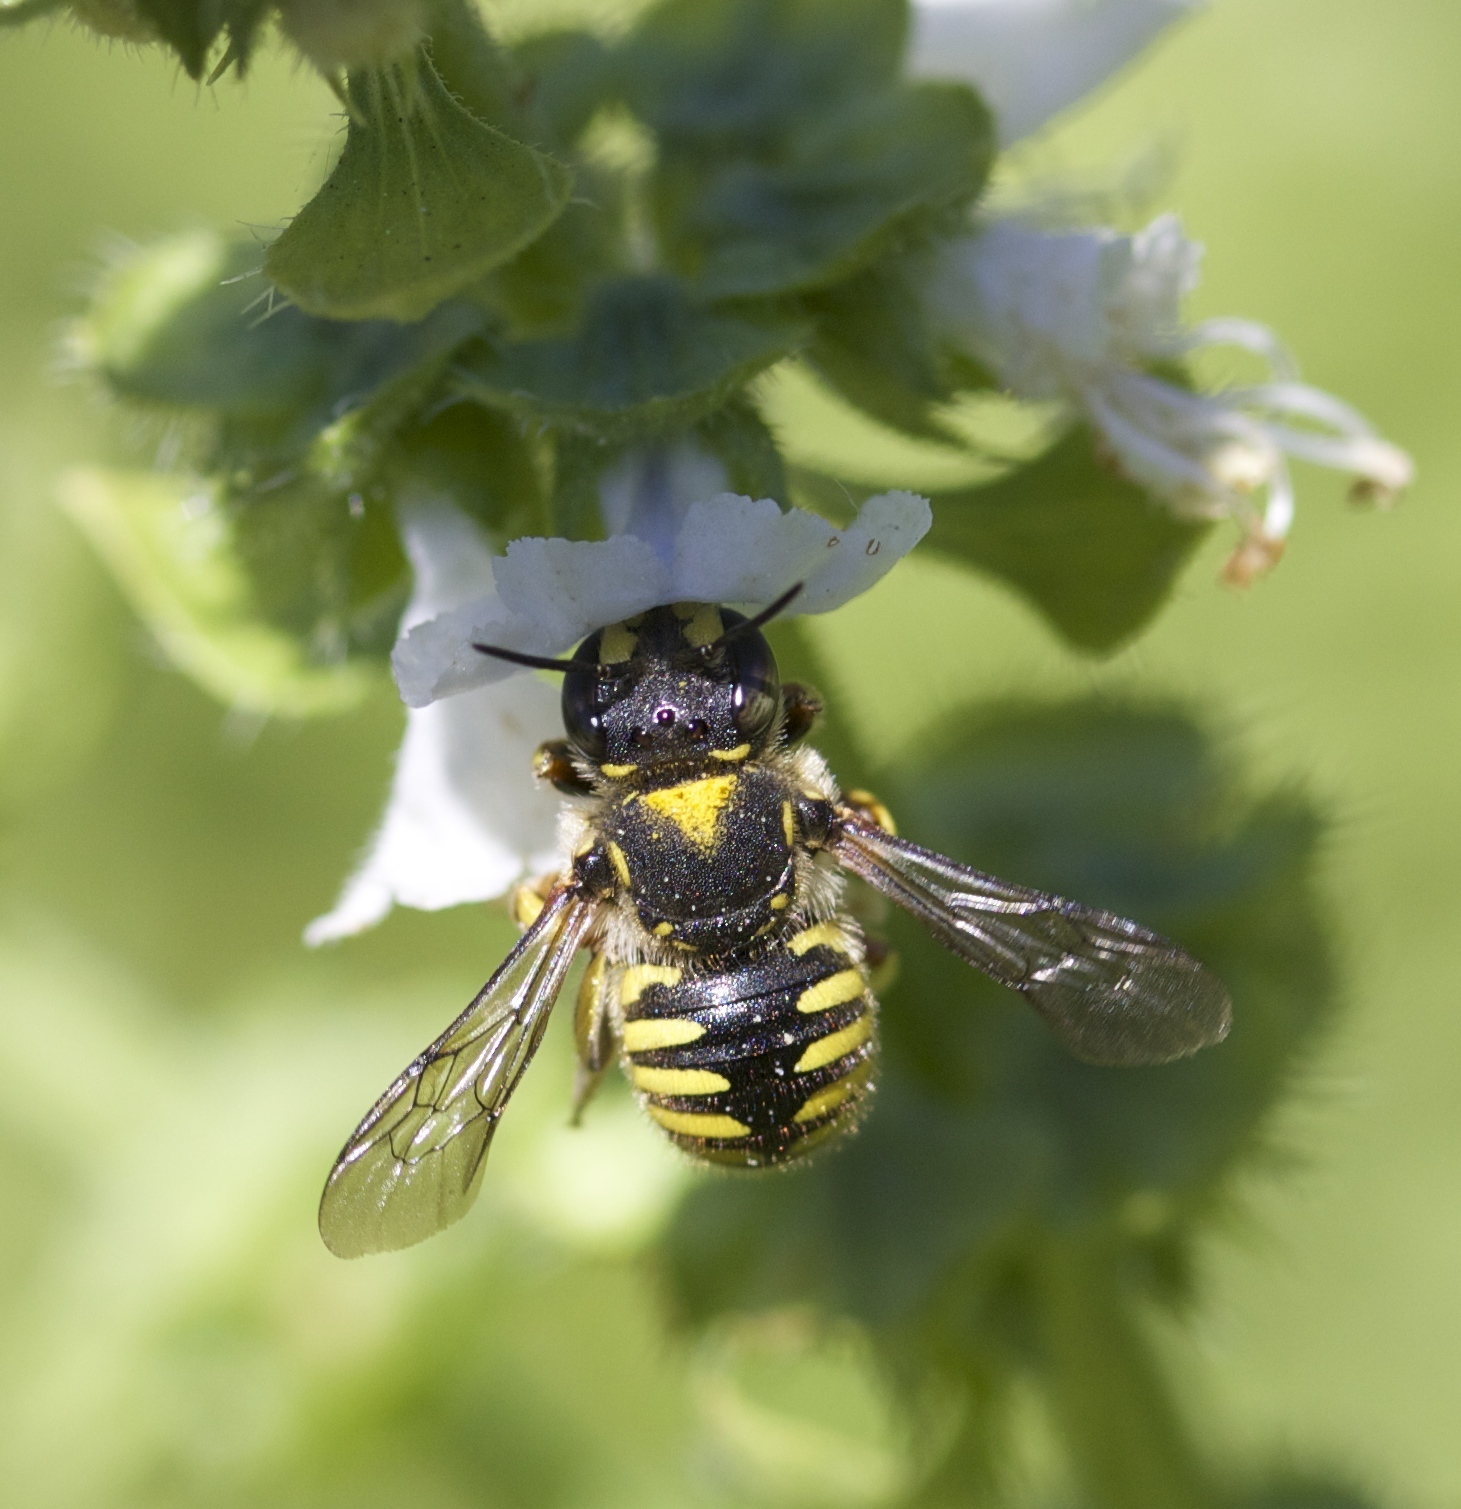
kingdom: Animalia
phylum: Arthropoda
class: Insecta
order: Hymenoptera
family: Megachilidae
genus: Anthidium
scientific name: Anthidium manicatum
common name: Wool carder bee
